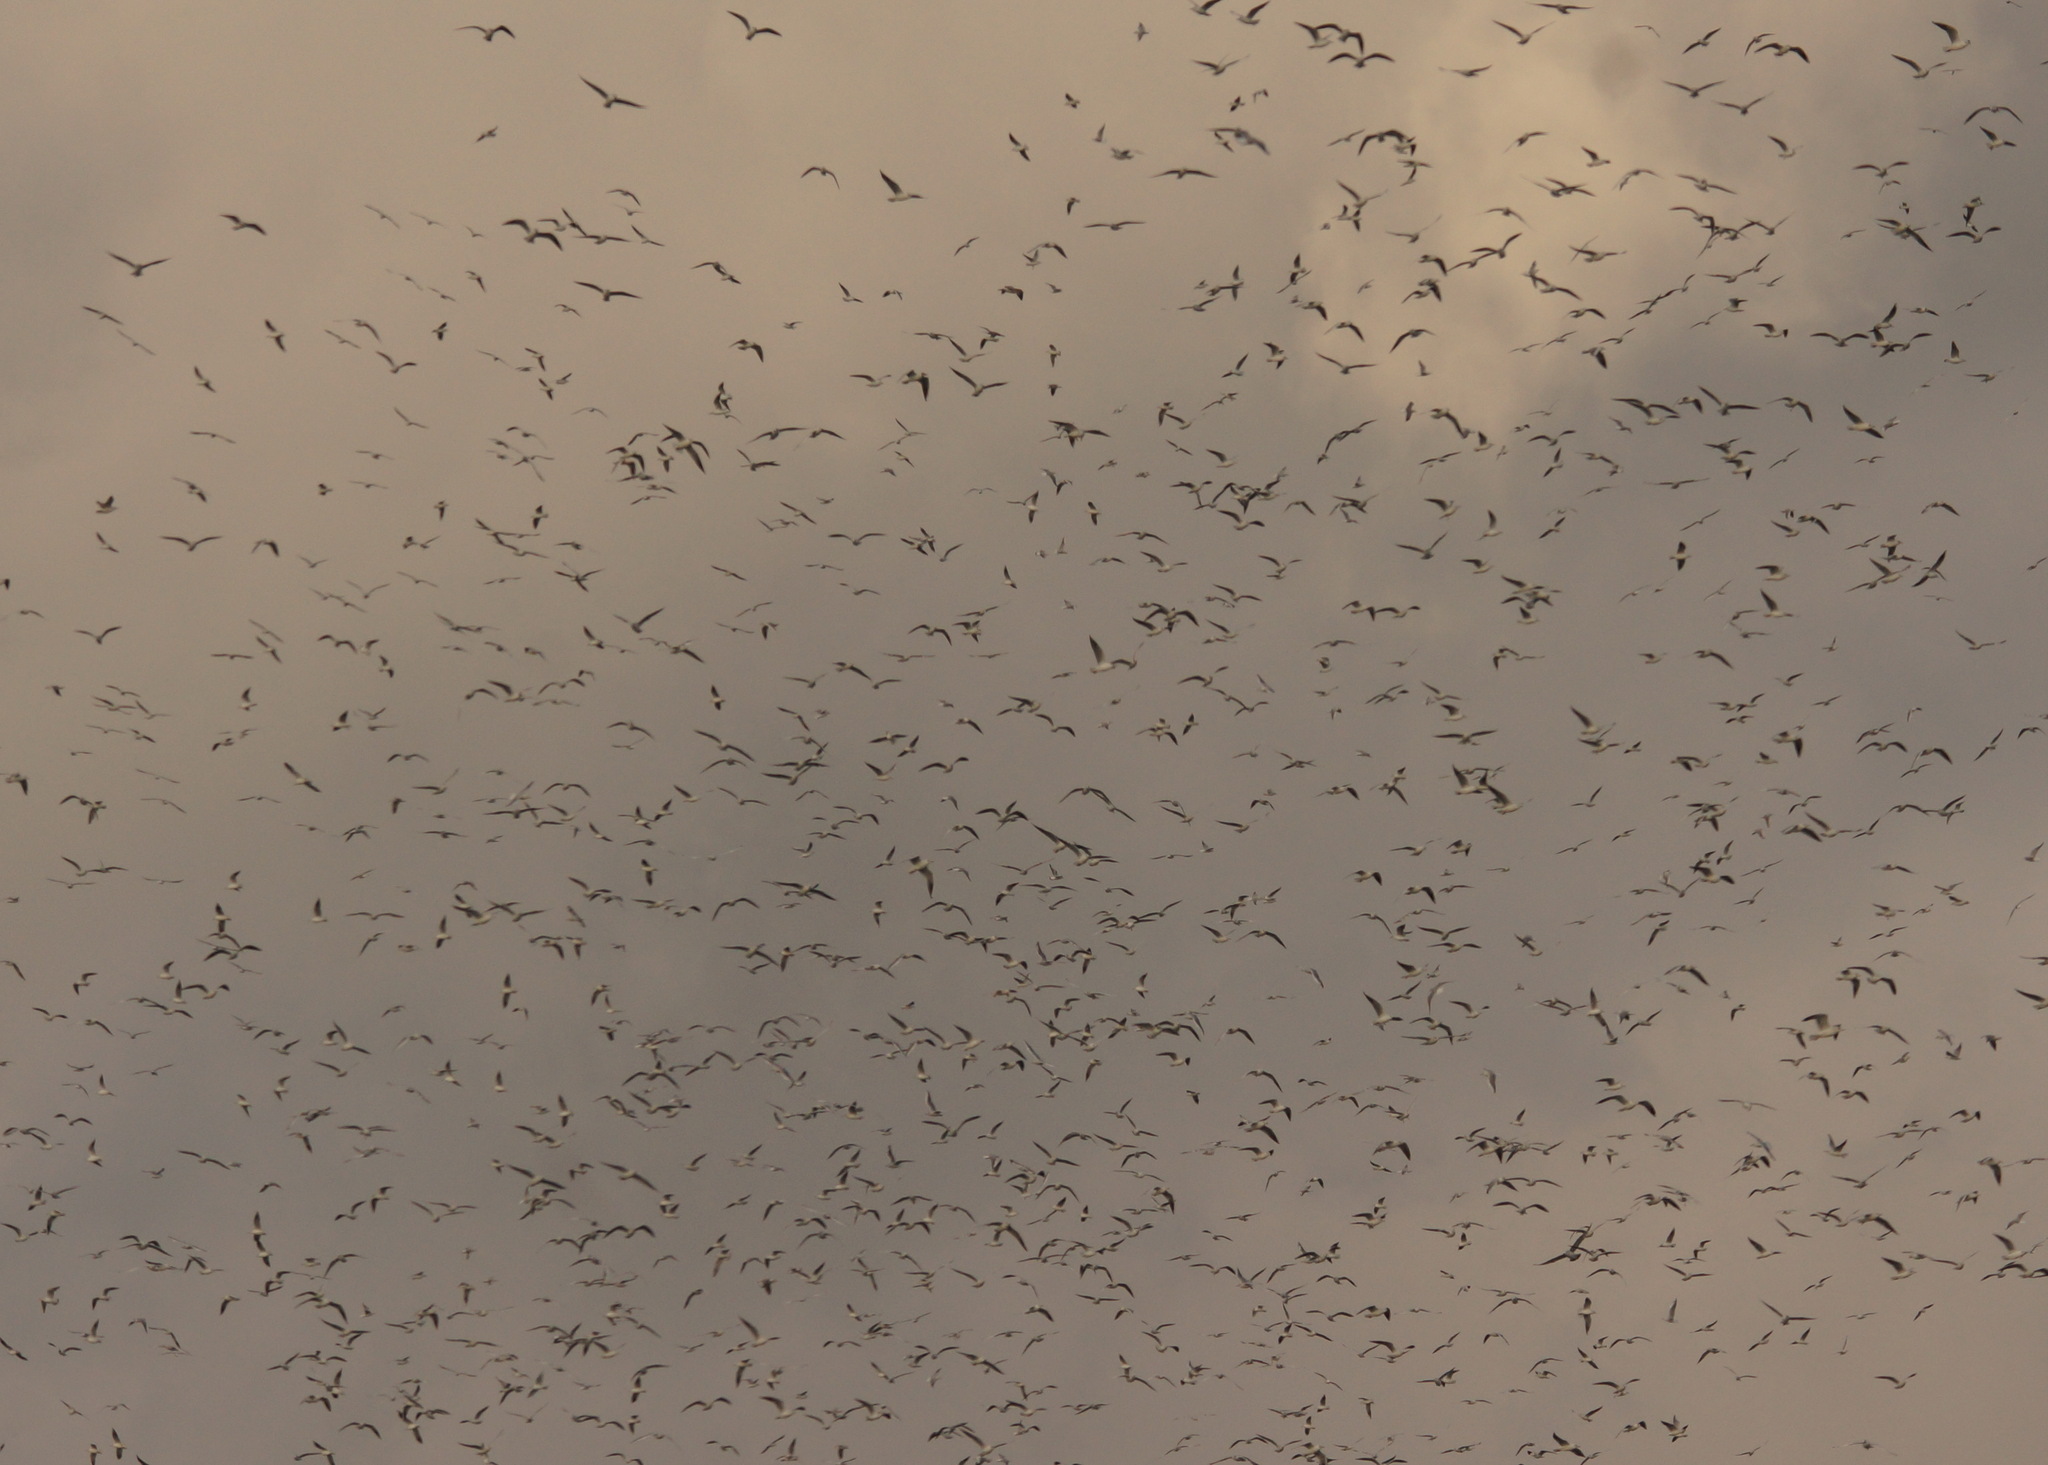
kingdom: Animalia
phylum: Chordata
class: Aves
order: Charadriiformes
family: Laridae
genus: Chroicocephalus
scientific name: Chroicocephalus ridibundus
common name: Black-headed gull
